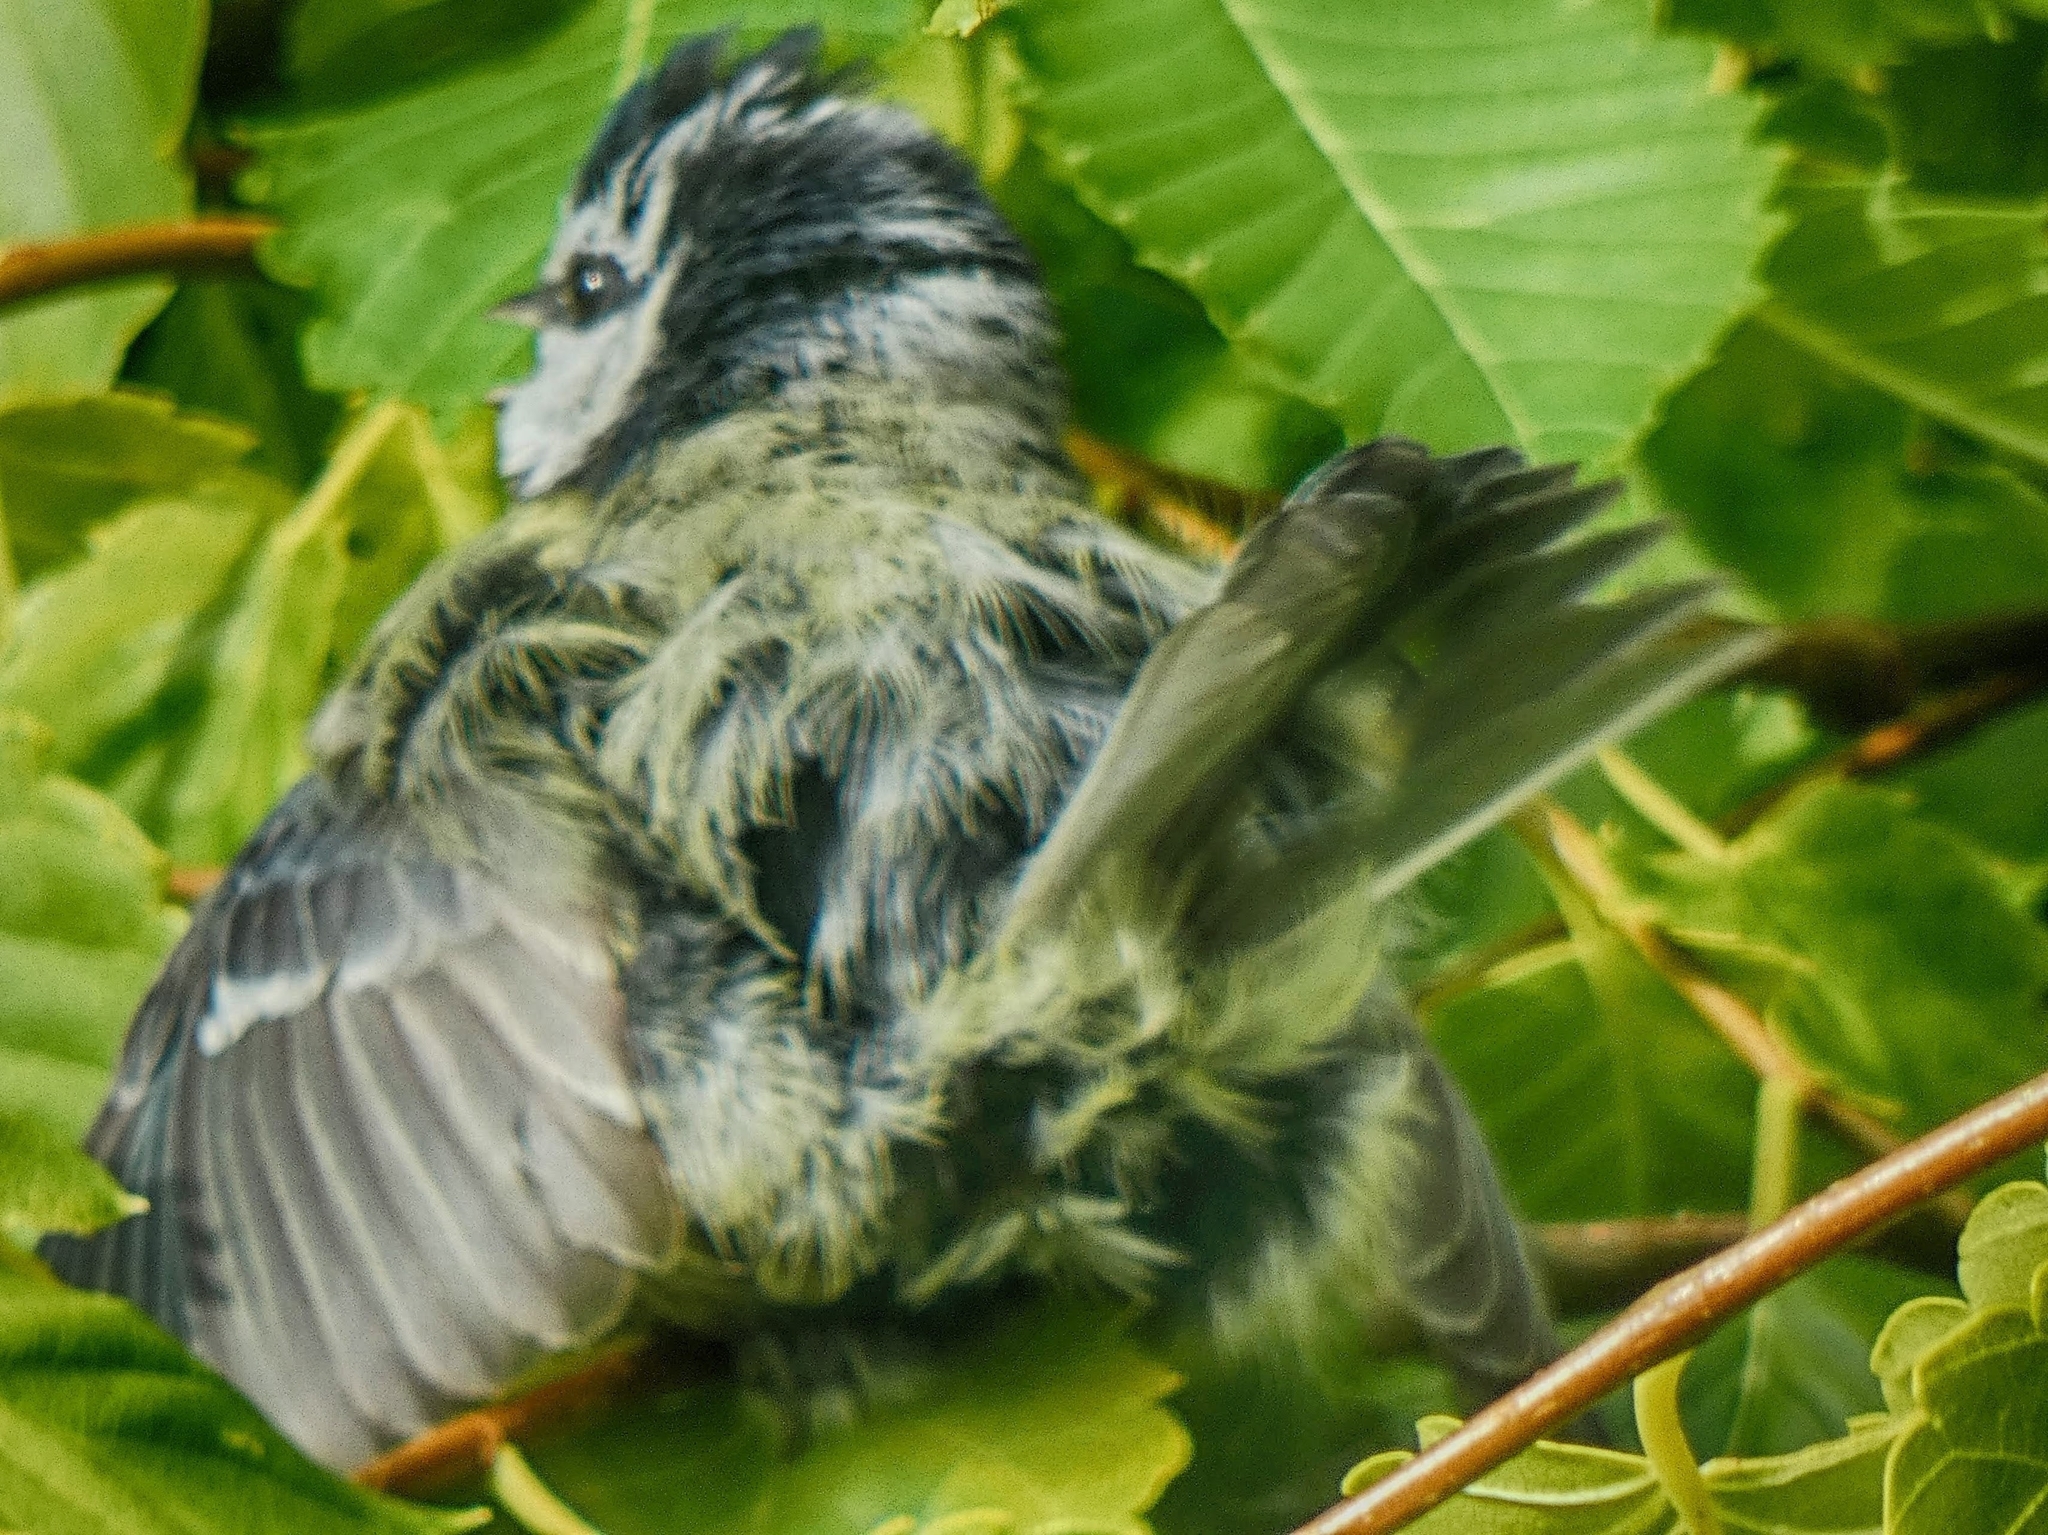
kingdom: Animalia
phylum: Chordata
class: Aves
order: Passeriformes
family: Paridae
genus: Cyanistes
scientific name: Cyanistes caeruleus
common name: Eurasian blue tit
